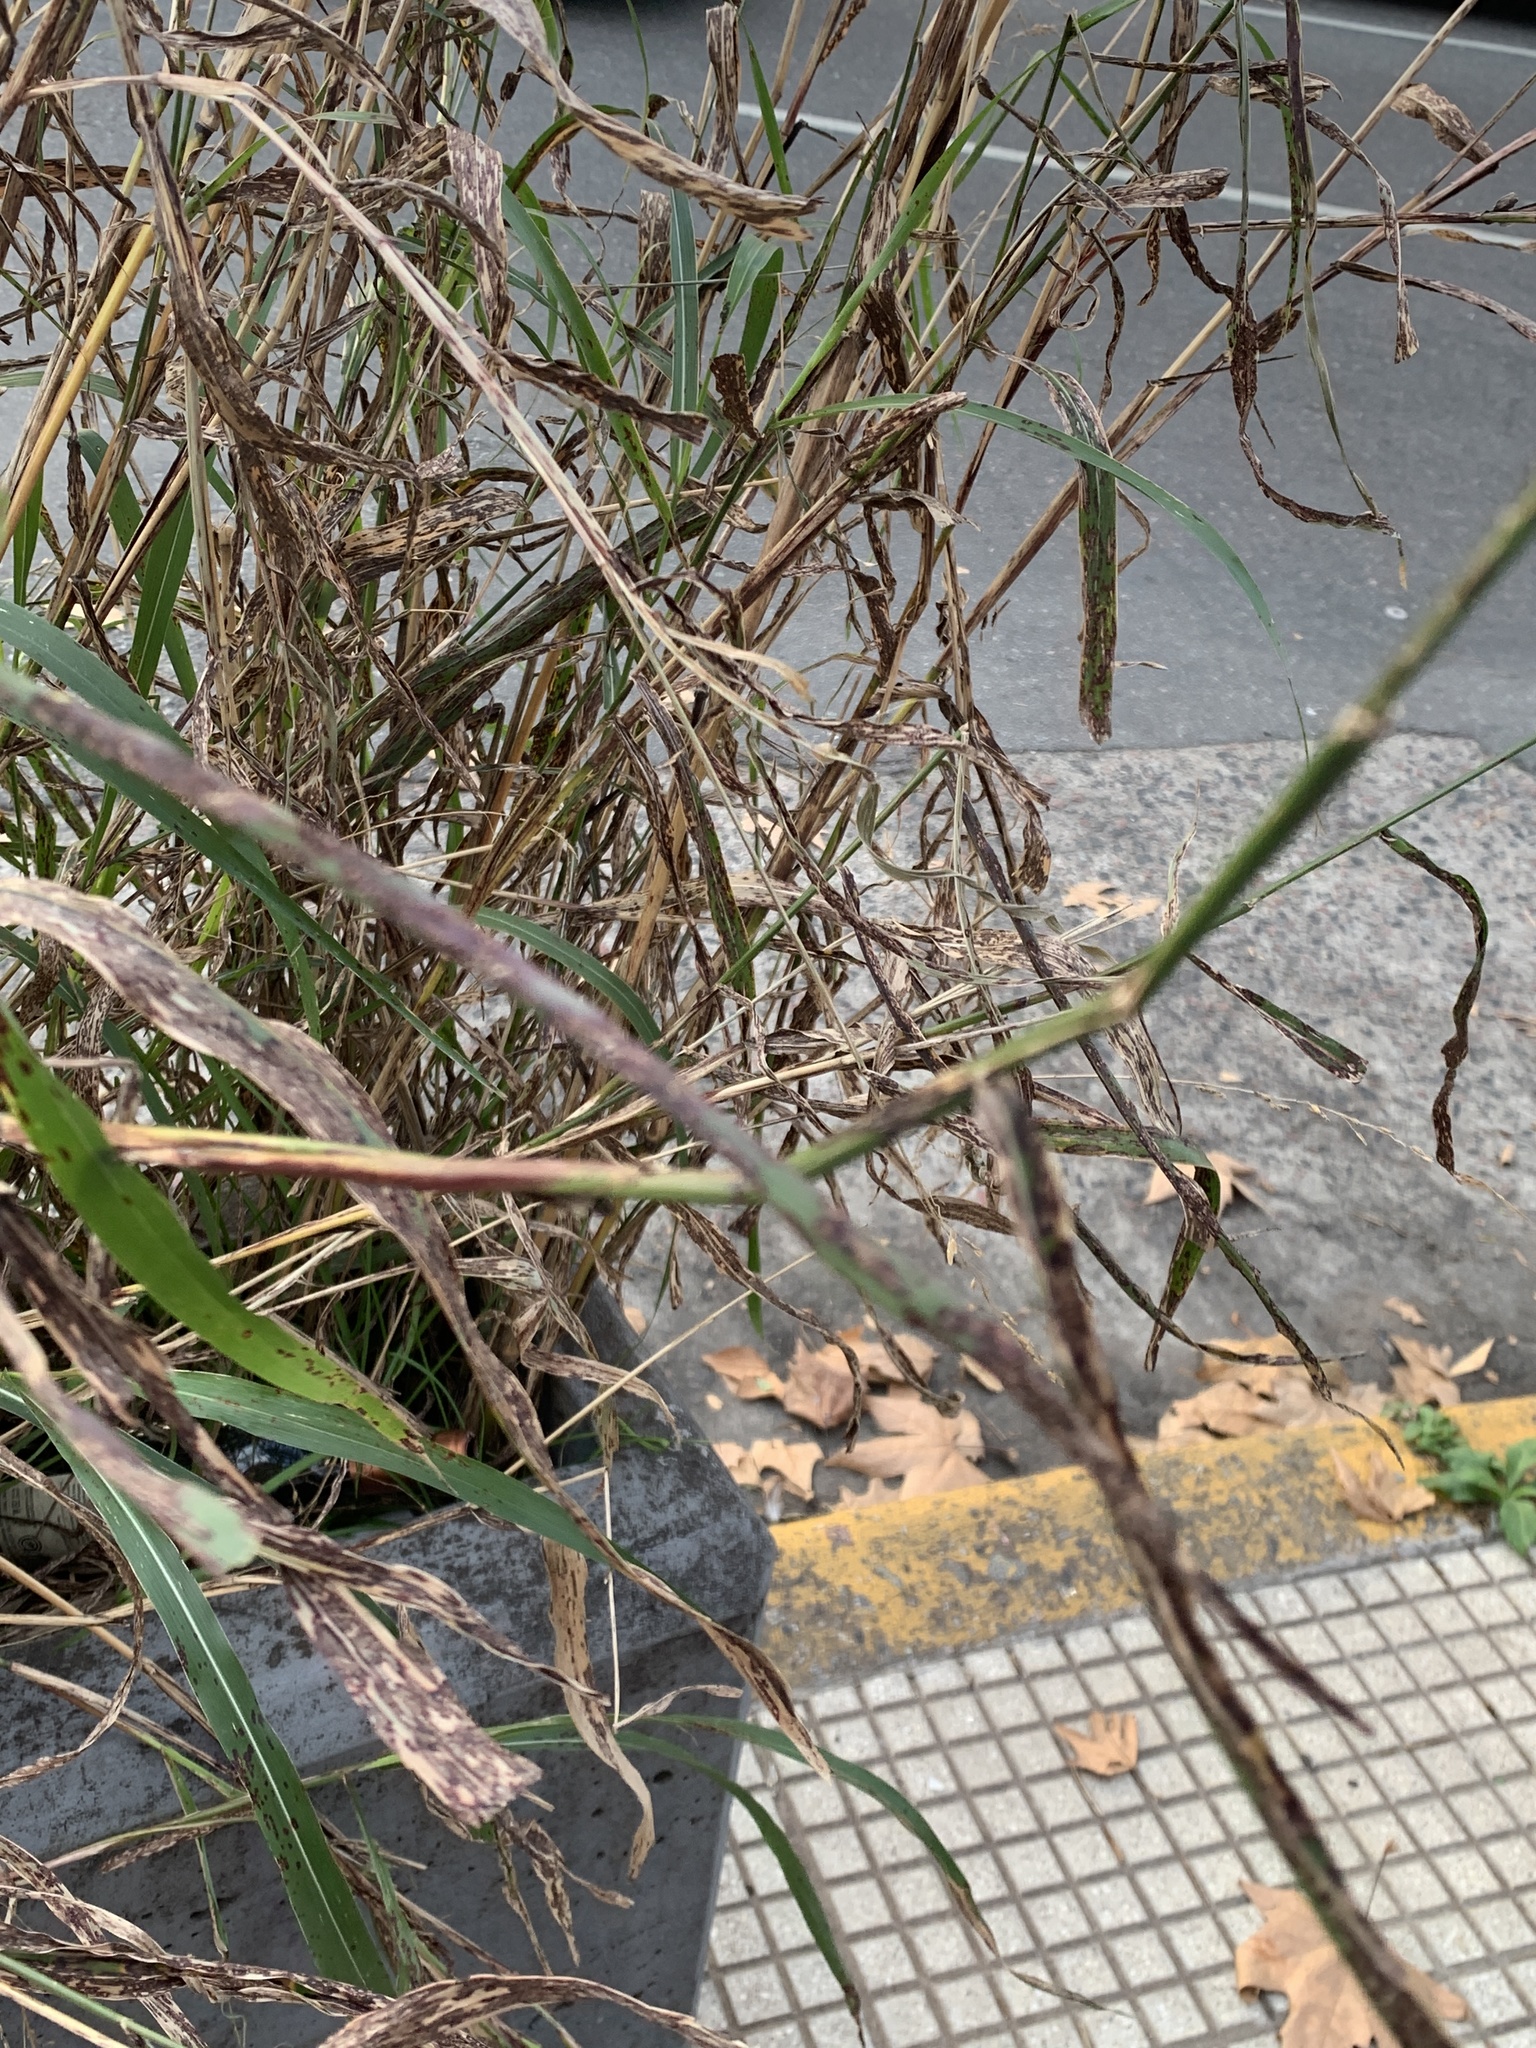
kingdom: Plantae
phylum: Tracheophyta
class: Liliopsida
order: Poales
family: Poaceae
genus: Sorghum
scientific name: Sorghum halepense
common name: Johnson-grass
